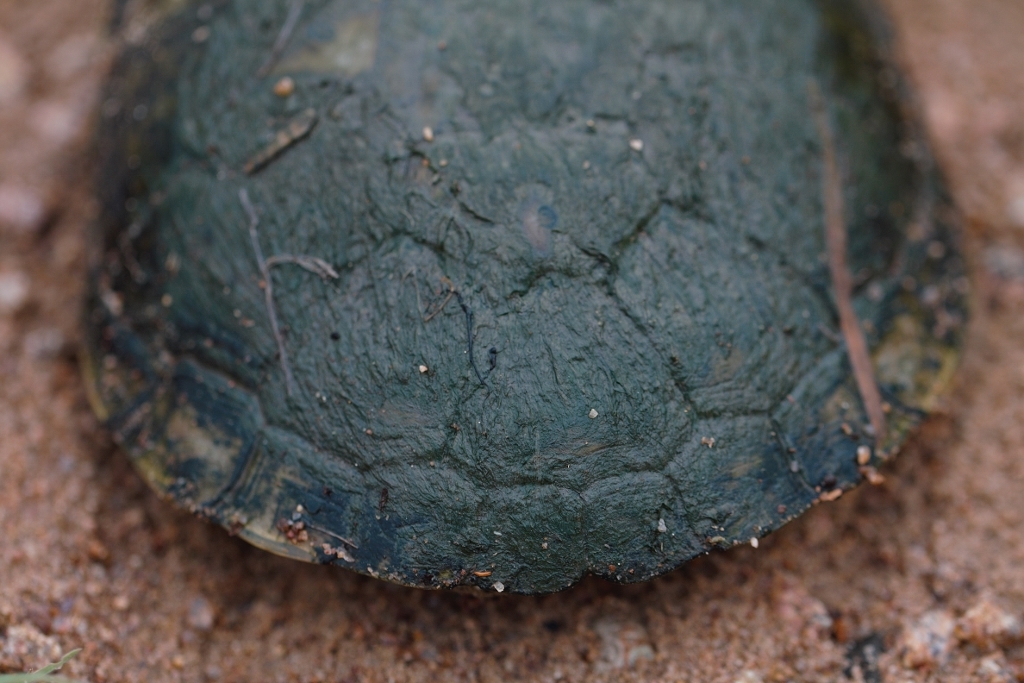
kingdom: Animalia
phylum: Chordata
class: Testudines
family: Pelomedusidae
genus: Pelomedusa
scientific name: Pelomedusa subrufa
